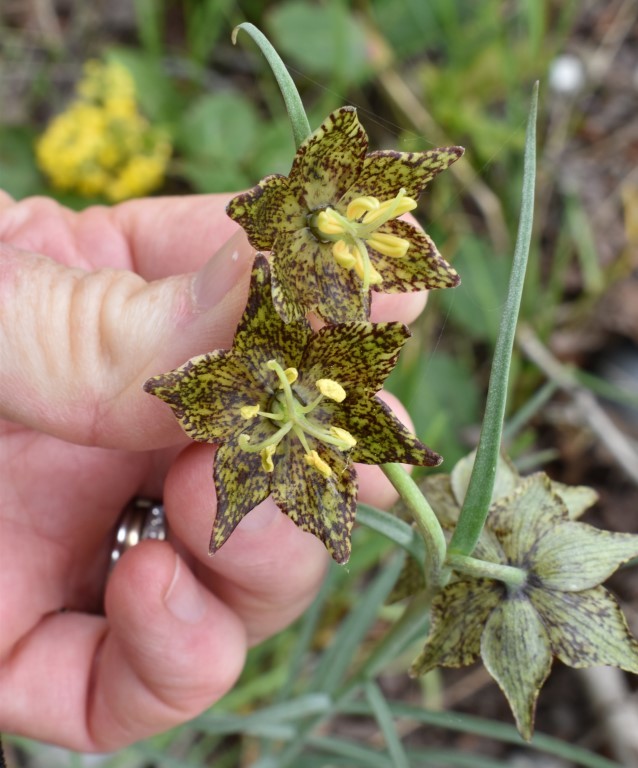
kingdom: Plantae
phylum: Tracheophyta
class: Liliopsida
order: Liliales
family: Liliaceae
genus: Fritillaria
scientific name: Fritillaria atropurpurea
